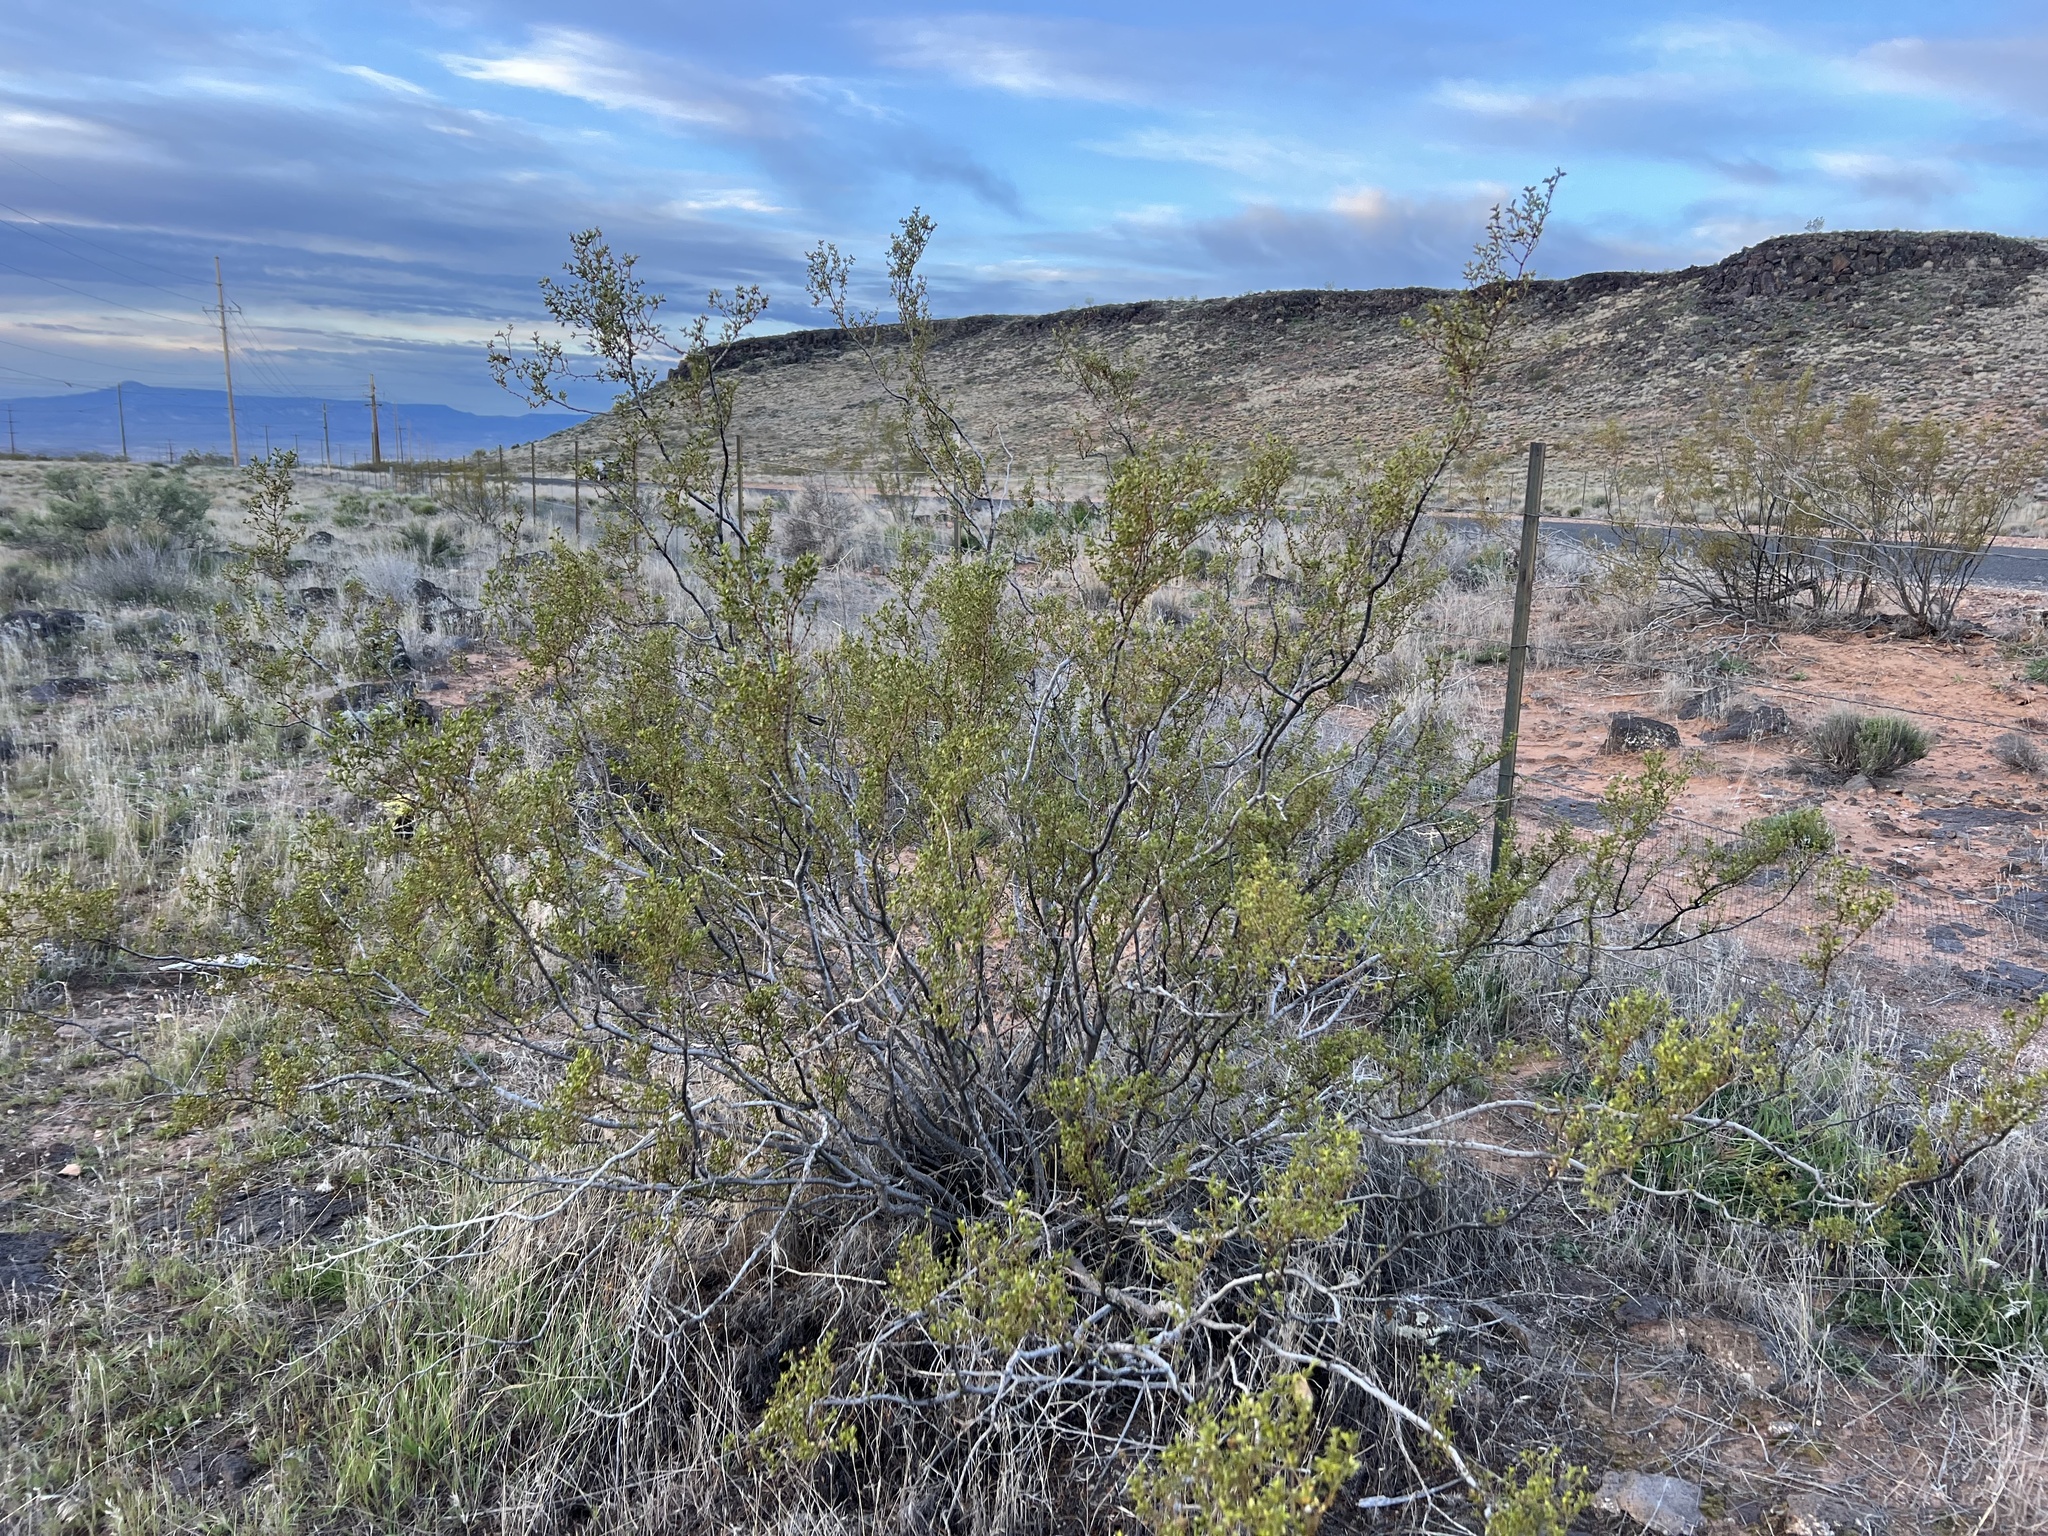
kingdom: Plantae
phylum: Tracheophyta
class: Magnoliopsida
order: Zygophyllales
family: Zygophyllaceae
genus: Larrea
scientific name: Larrea tridentata
